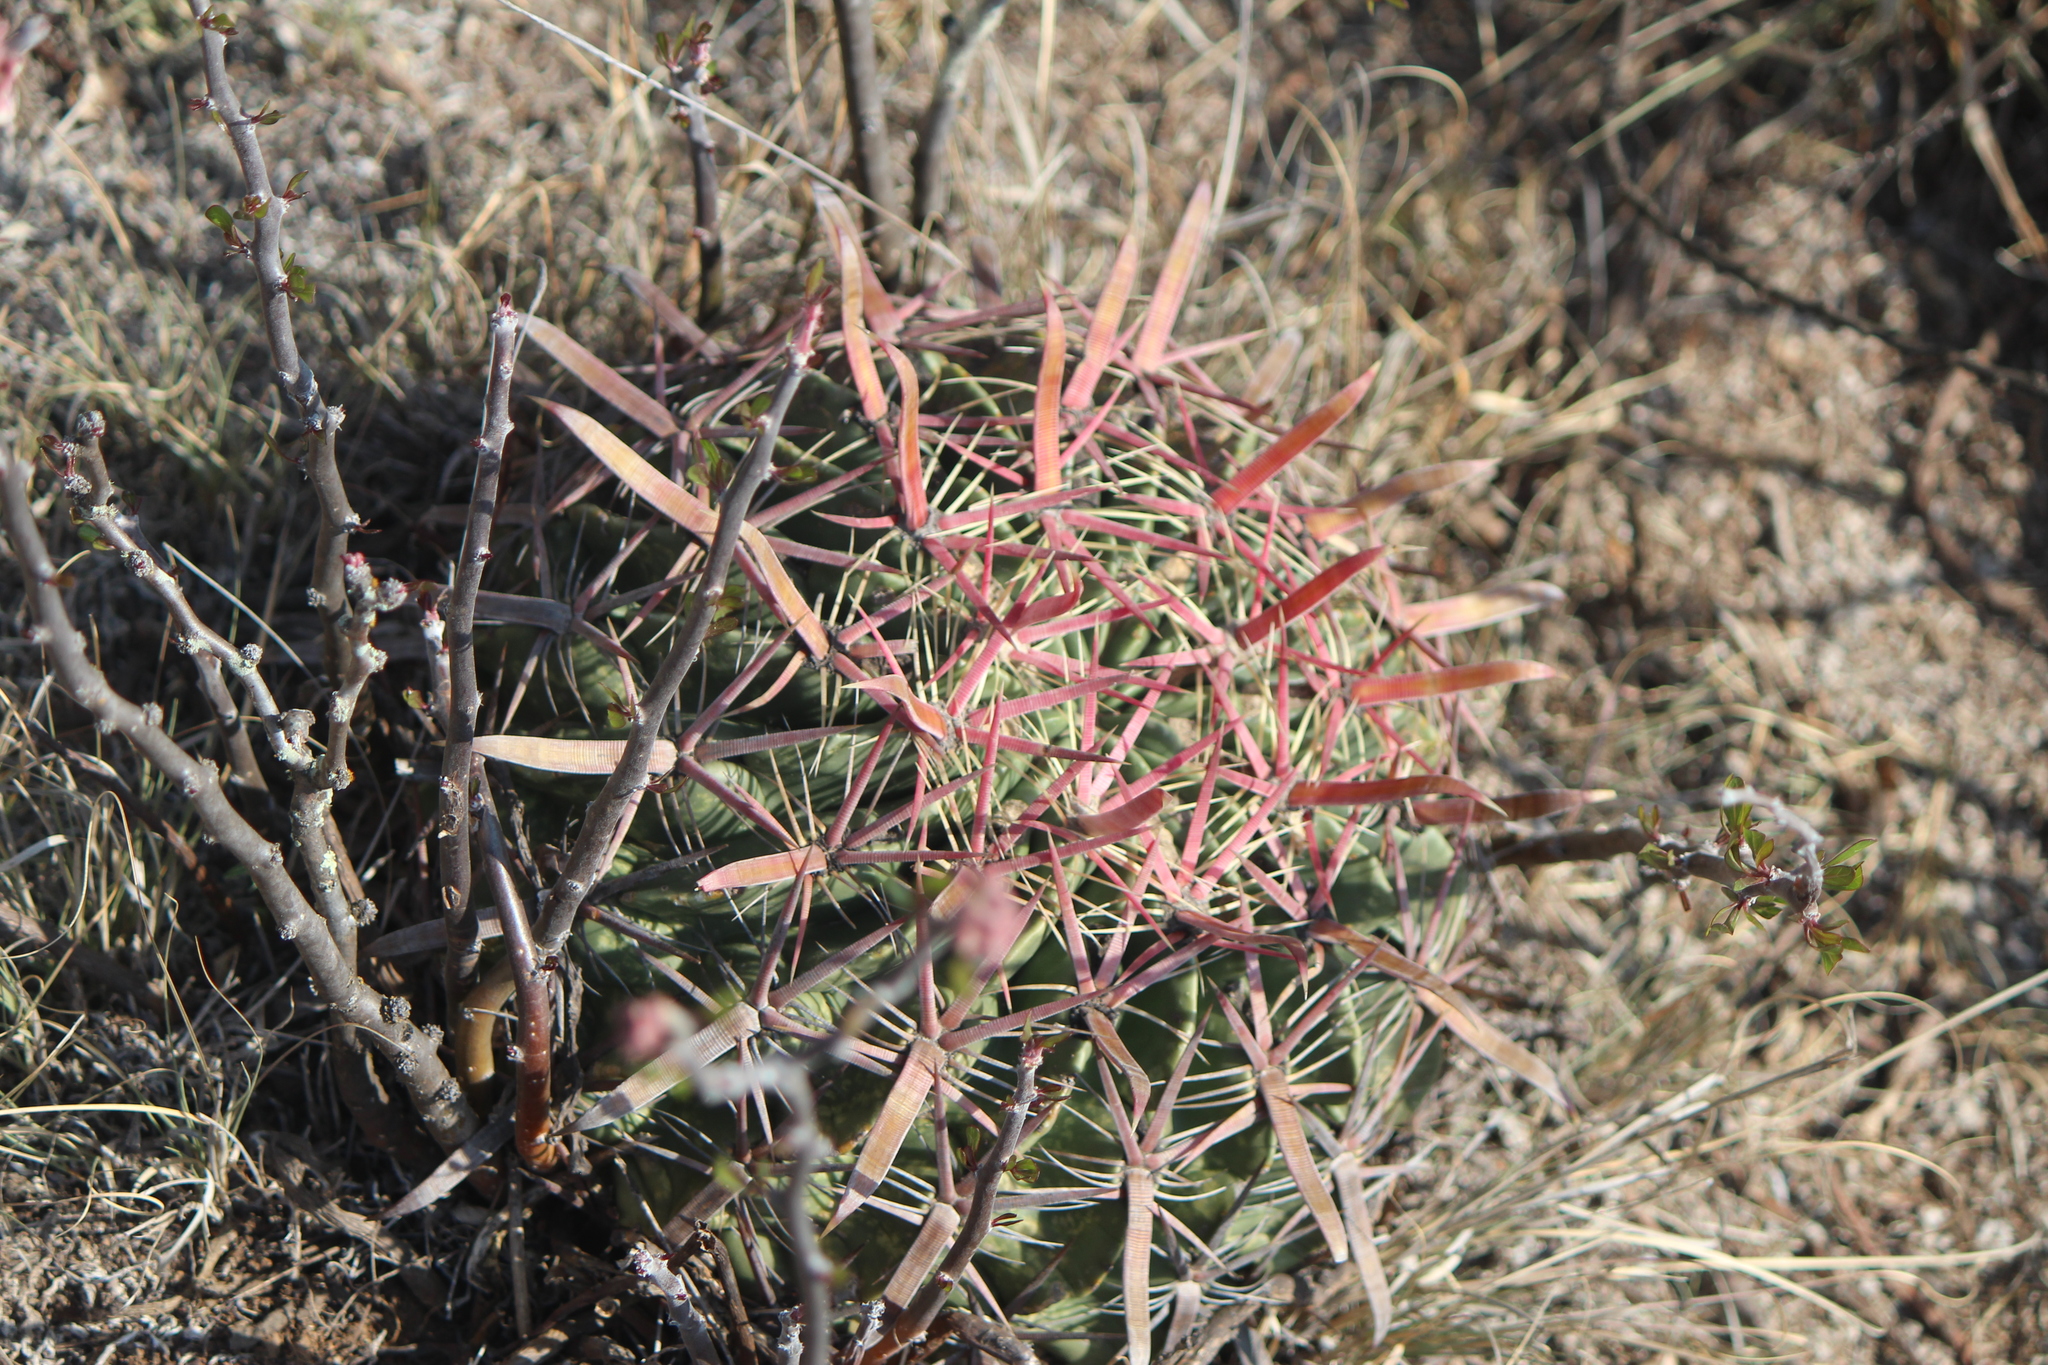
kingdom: Plantae
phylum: Tracheophyta
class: Magnoliopsida
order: Caryophyllales
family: Cactaceae
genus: Ferocactus
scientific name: Ferocactus latispinus
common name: Devil's-tongue cactus
